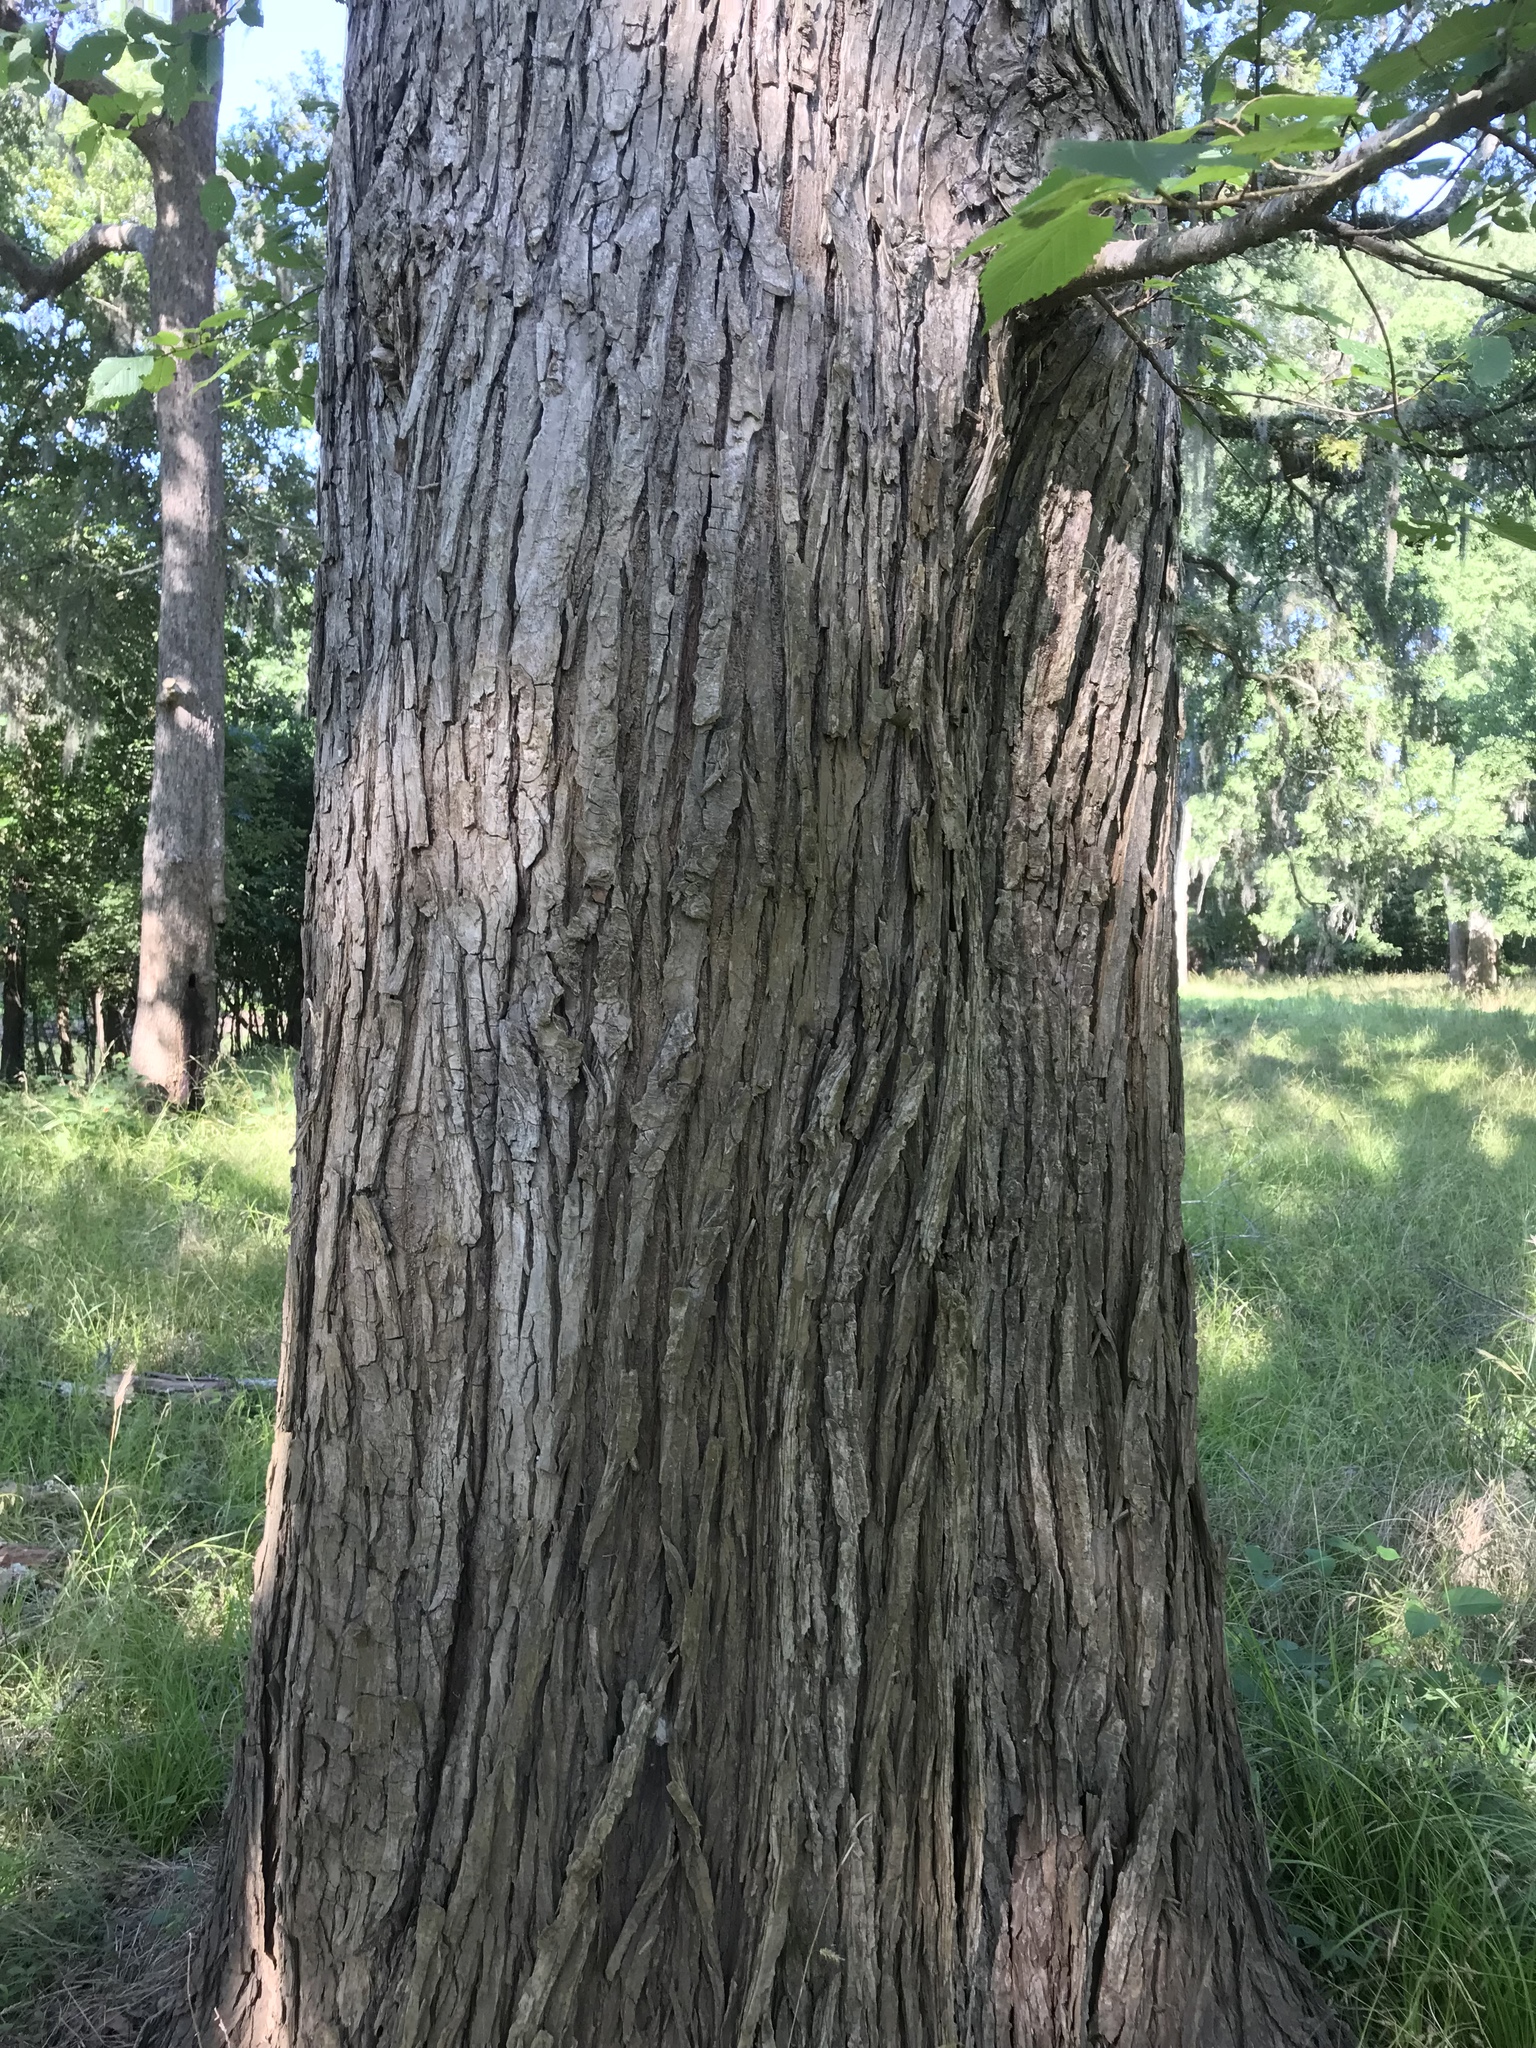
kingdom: Plantae
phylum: Tracheophyta
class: Magnoliopsida
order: Rosales
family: Ulmaceae
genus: Ulmus
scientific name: Ulmus americana
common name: American elm
